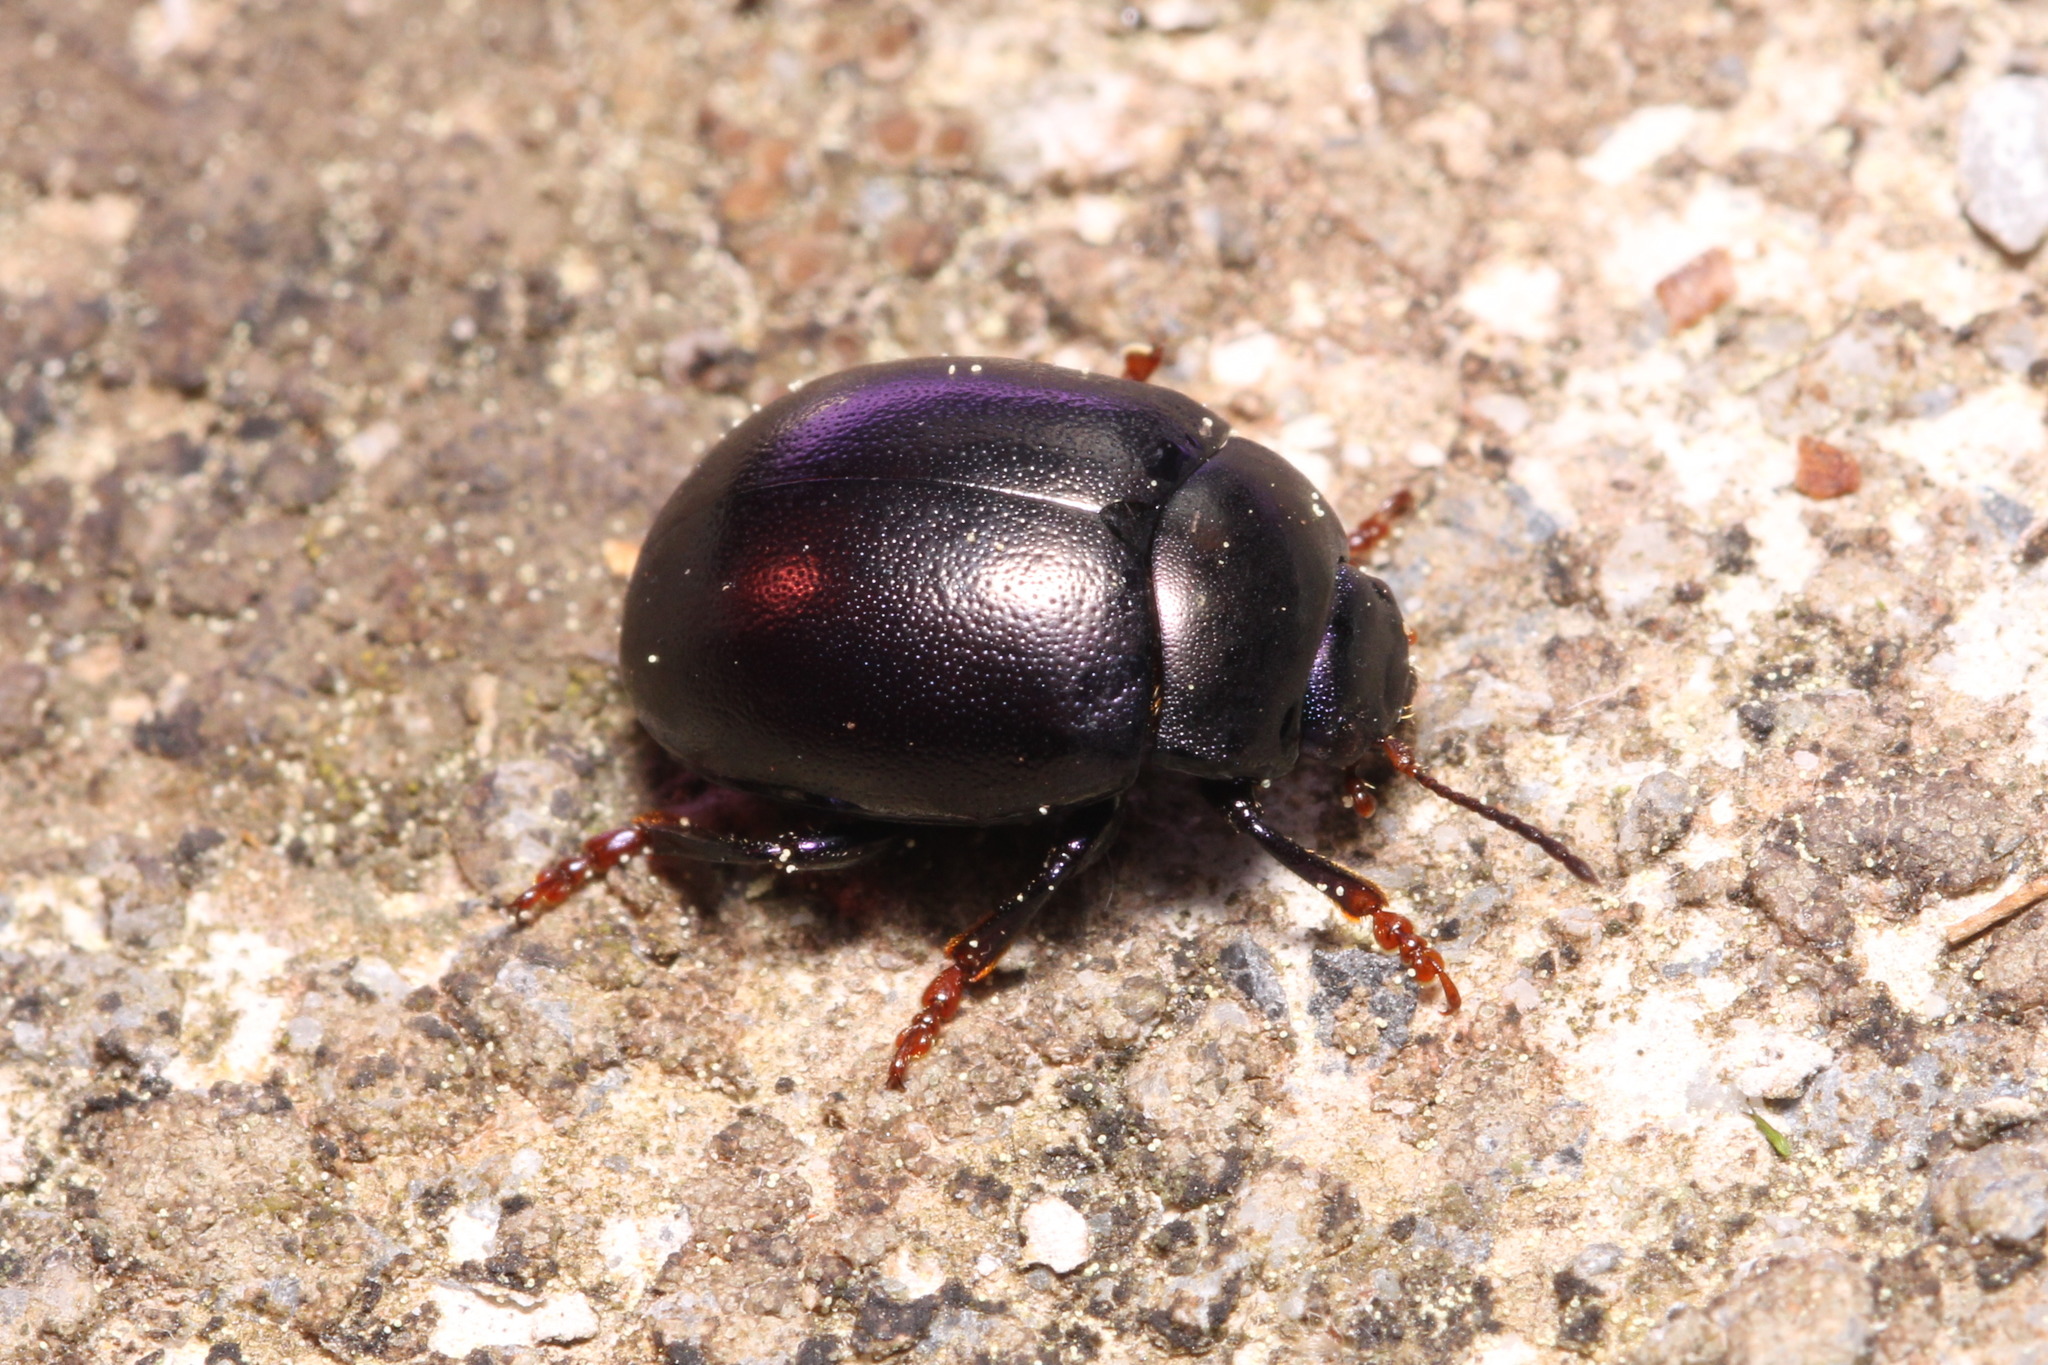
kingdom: Animalia
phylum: Arthropoda
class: Insecta
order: Coleoptera
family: Chrysomelidae
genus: Chrysolina
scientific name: Chrysolina sturmi
